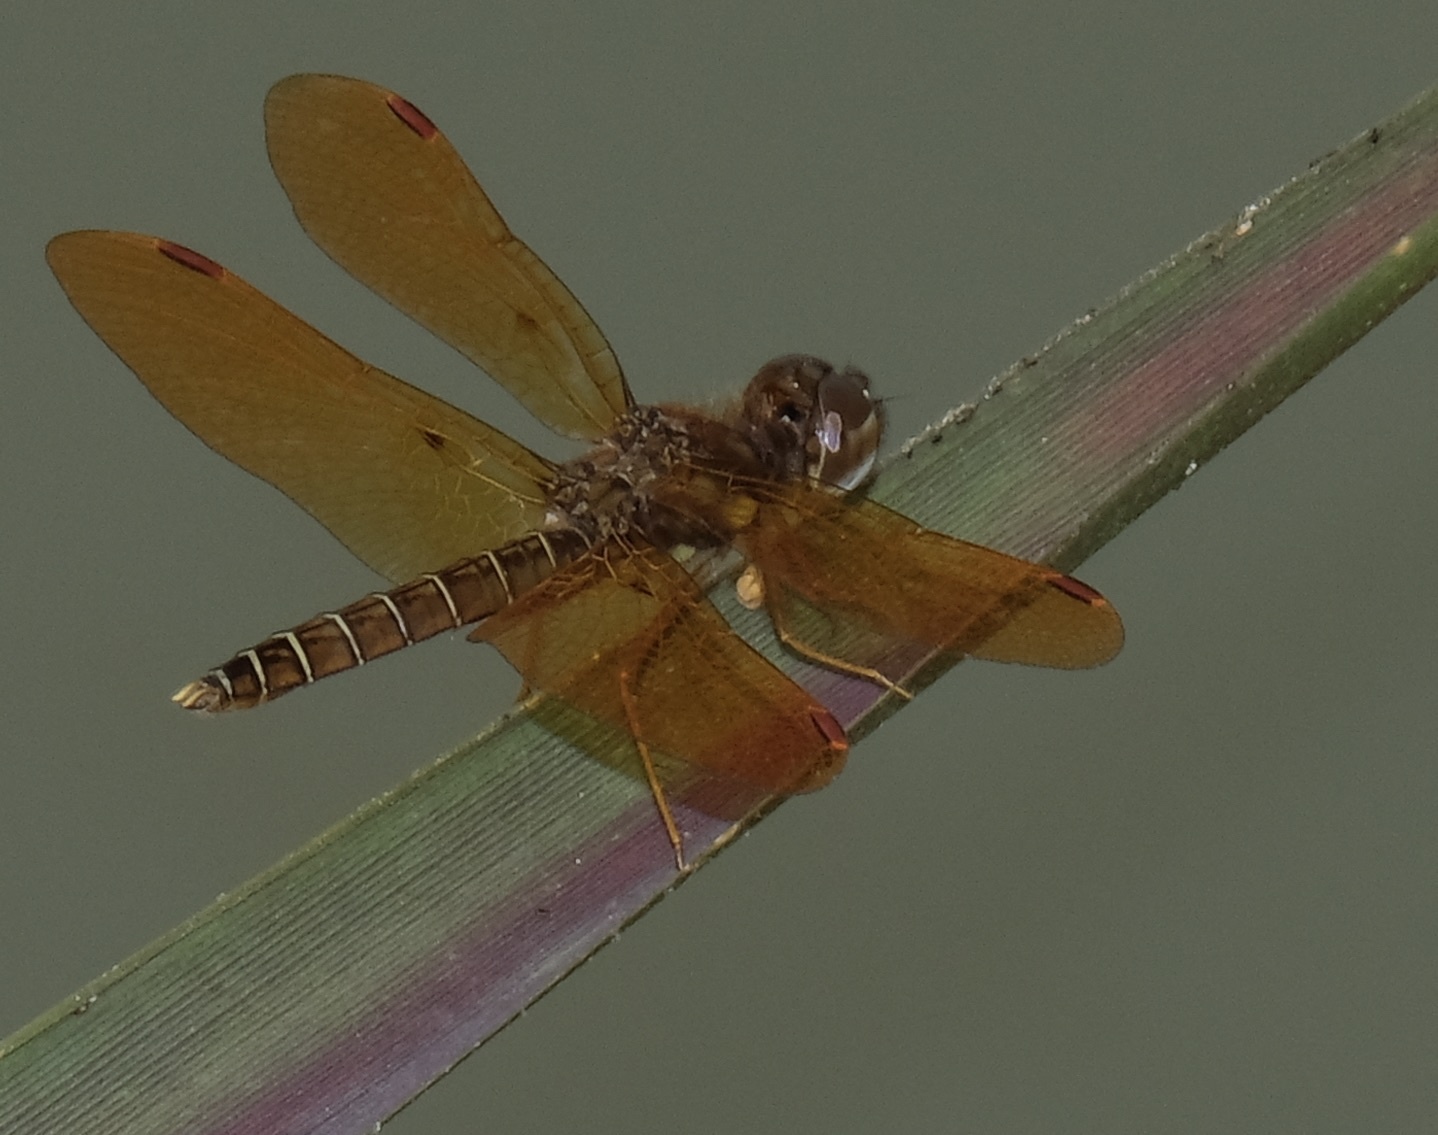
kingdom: Animalia
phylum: Arthropoda
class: Insecta
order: Odonata
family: Libellulidae
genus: Perithemis
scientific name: Perithemis tenera
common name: Eastern amberwing
